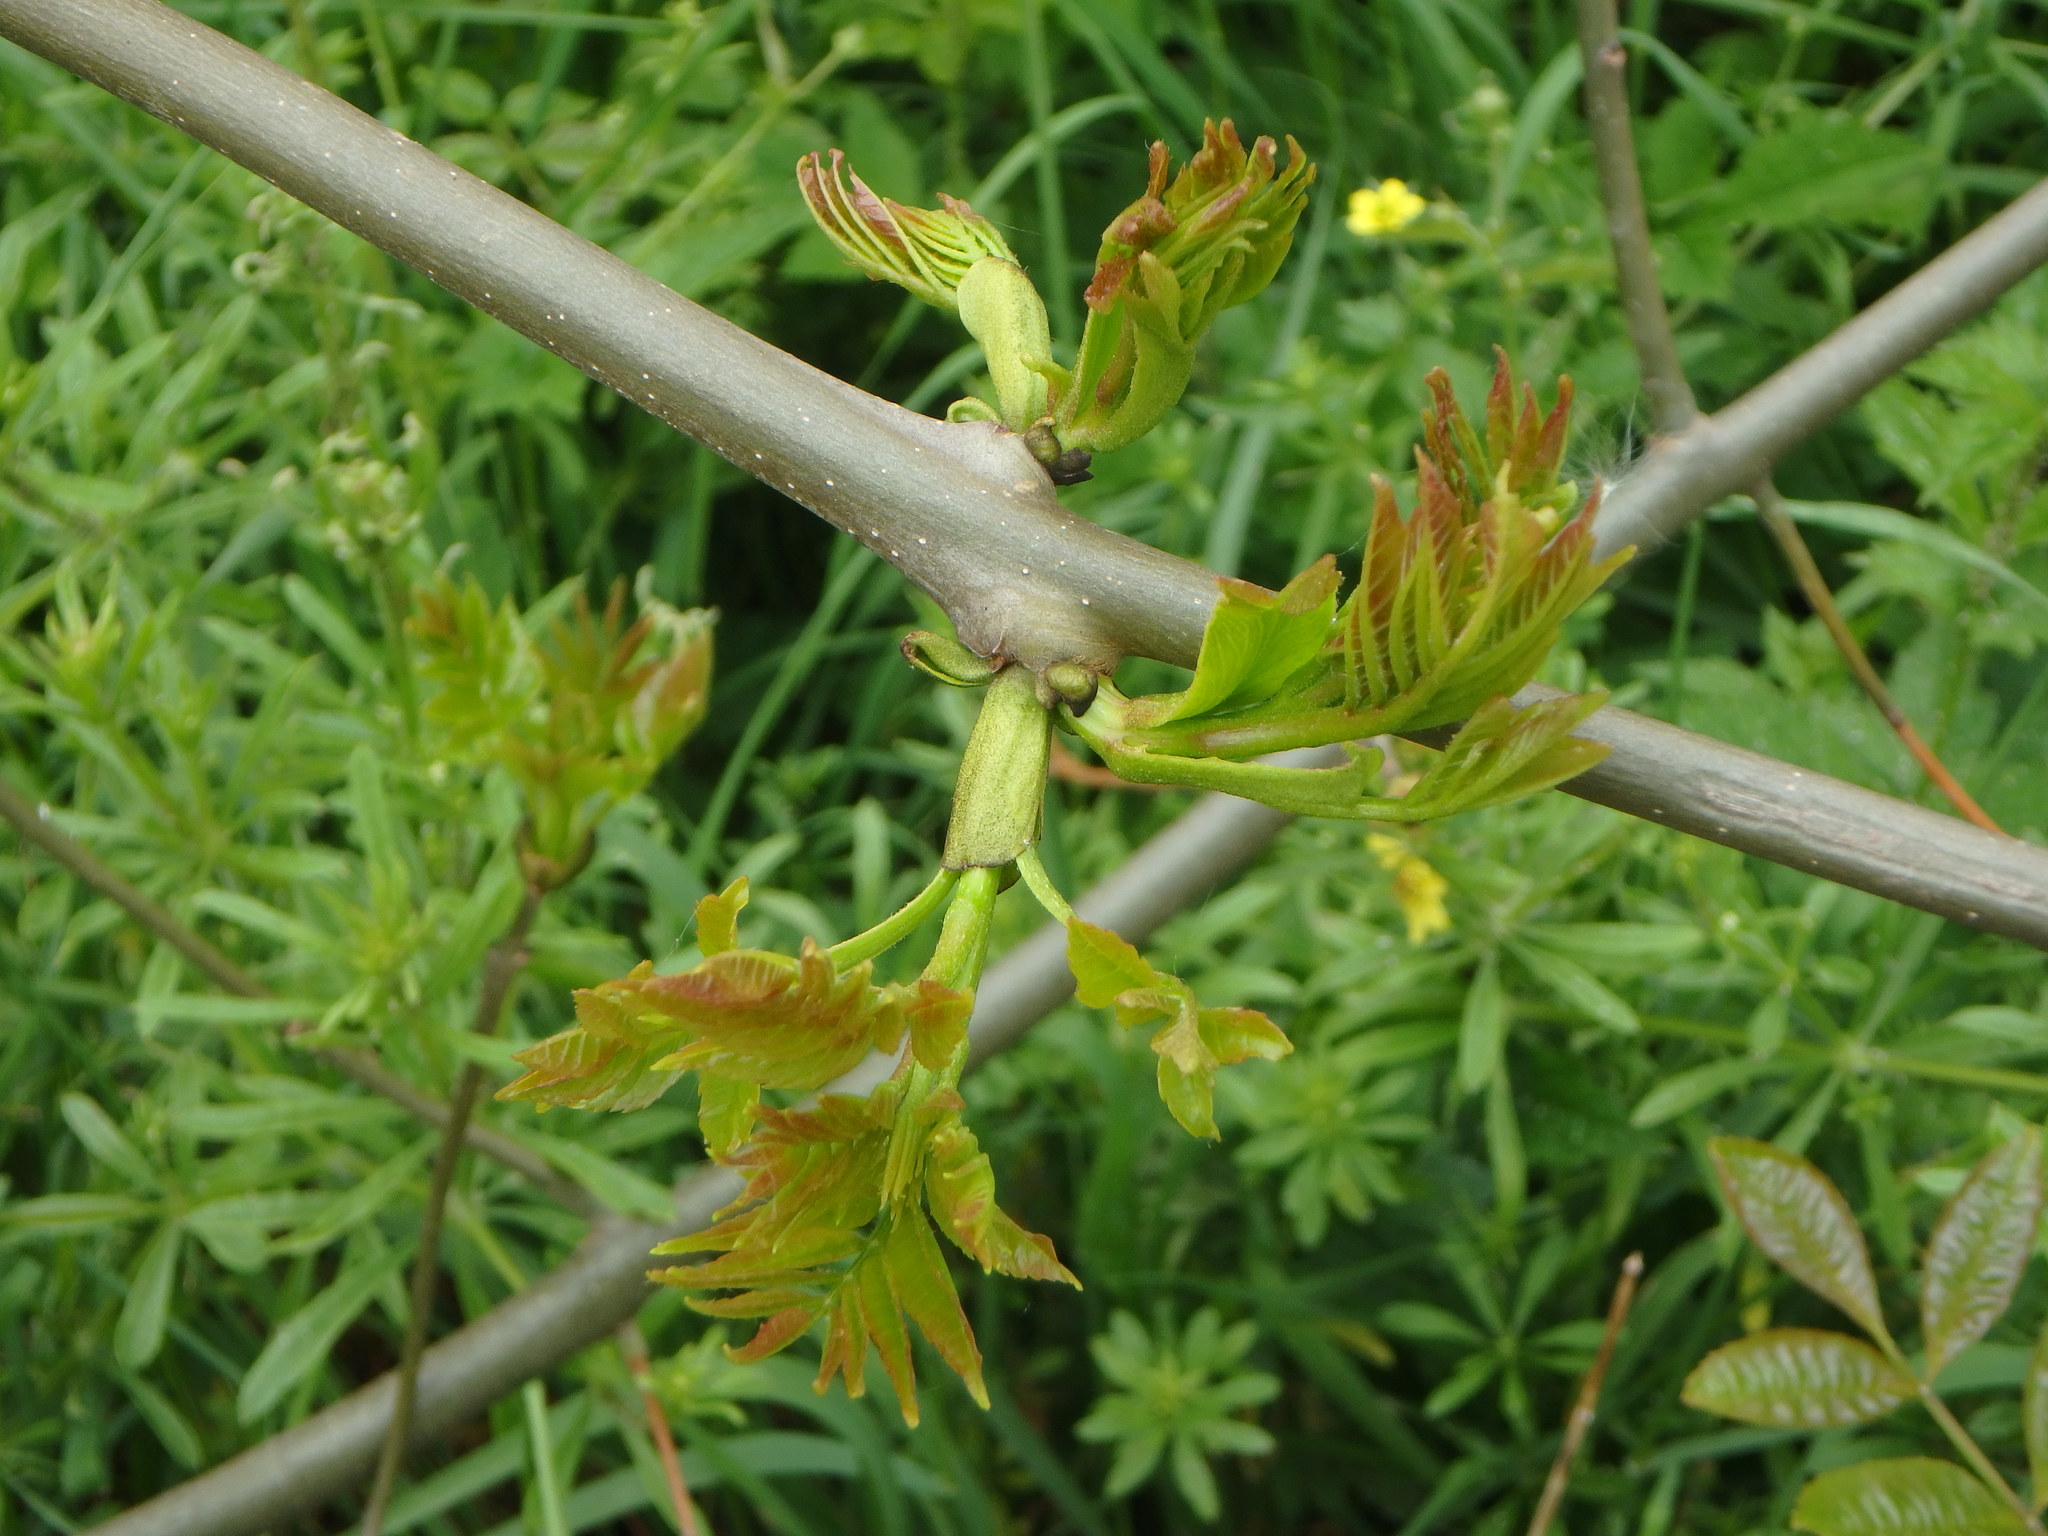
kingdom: Plantae
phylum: Tracheophyta
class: Magnoliopsida
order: Lamiales
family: Oleaceae
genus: Fraxinus
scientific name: Fraxinus excelsior
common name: European ash
